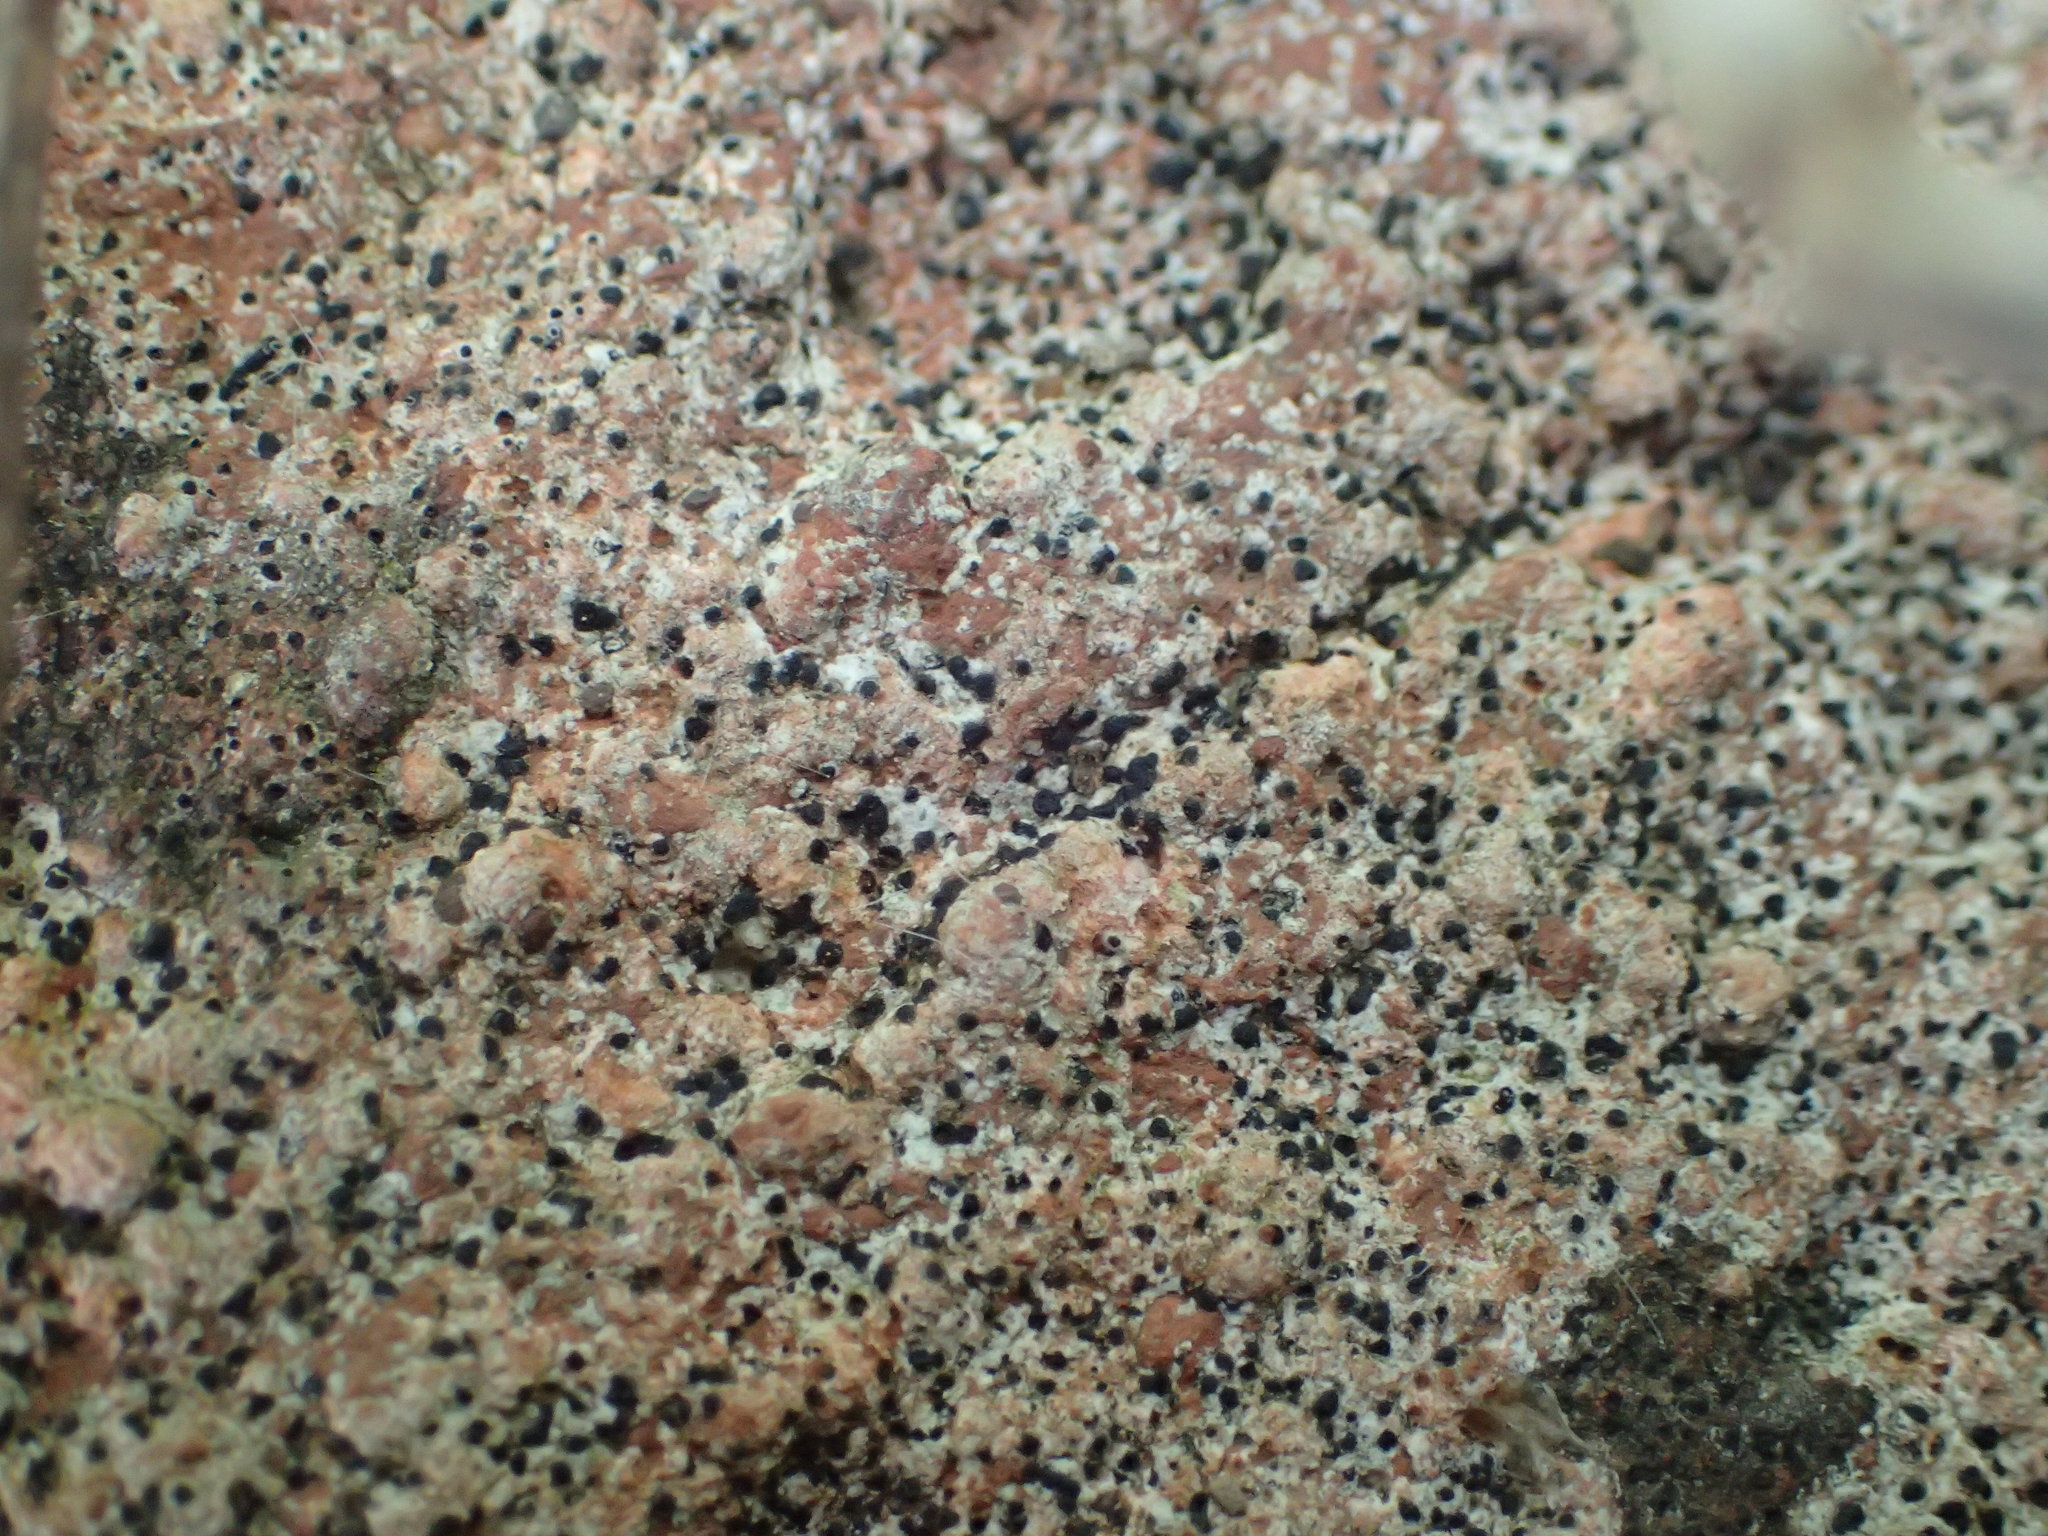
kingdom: Fungi
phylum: Ascomycota
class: Eurotiomycetes
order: Verrucariales
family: Verrucariaceae
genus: Verrucaria
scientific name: Verrucaria muralis
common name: Wall speck lichen
